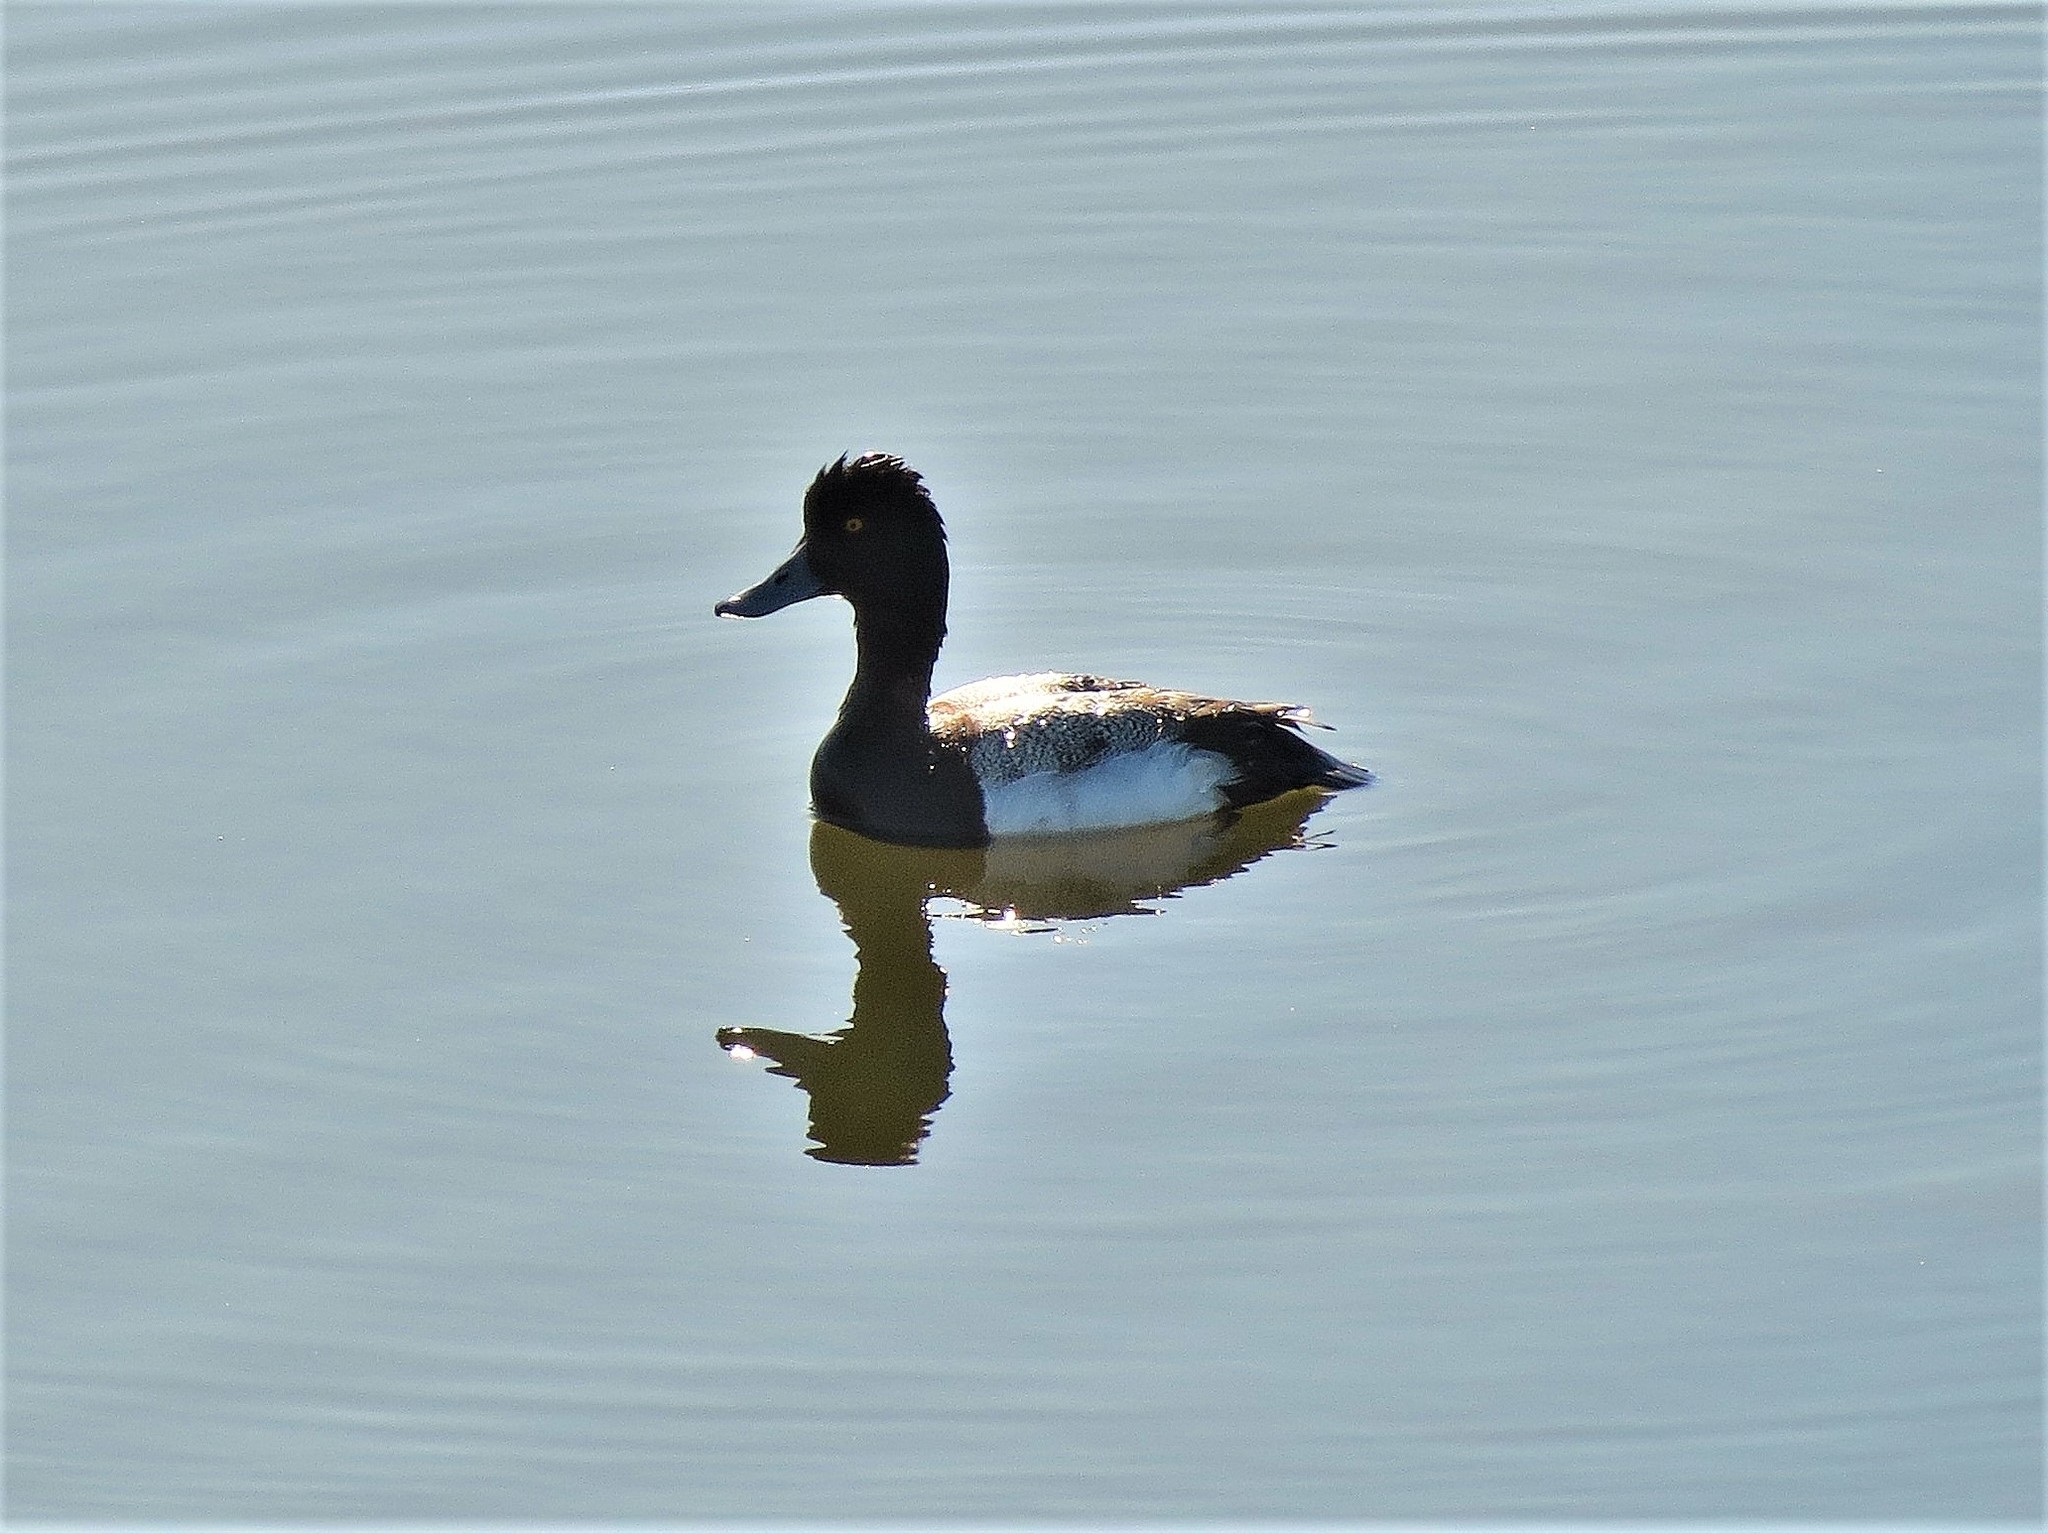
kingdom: Animalia
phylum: Chordata
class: Aves
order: Anseriformes
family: Anatidae
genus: Aythya
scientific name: Aythya affinis
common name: Lesser scaup
